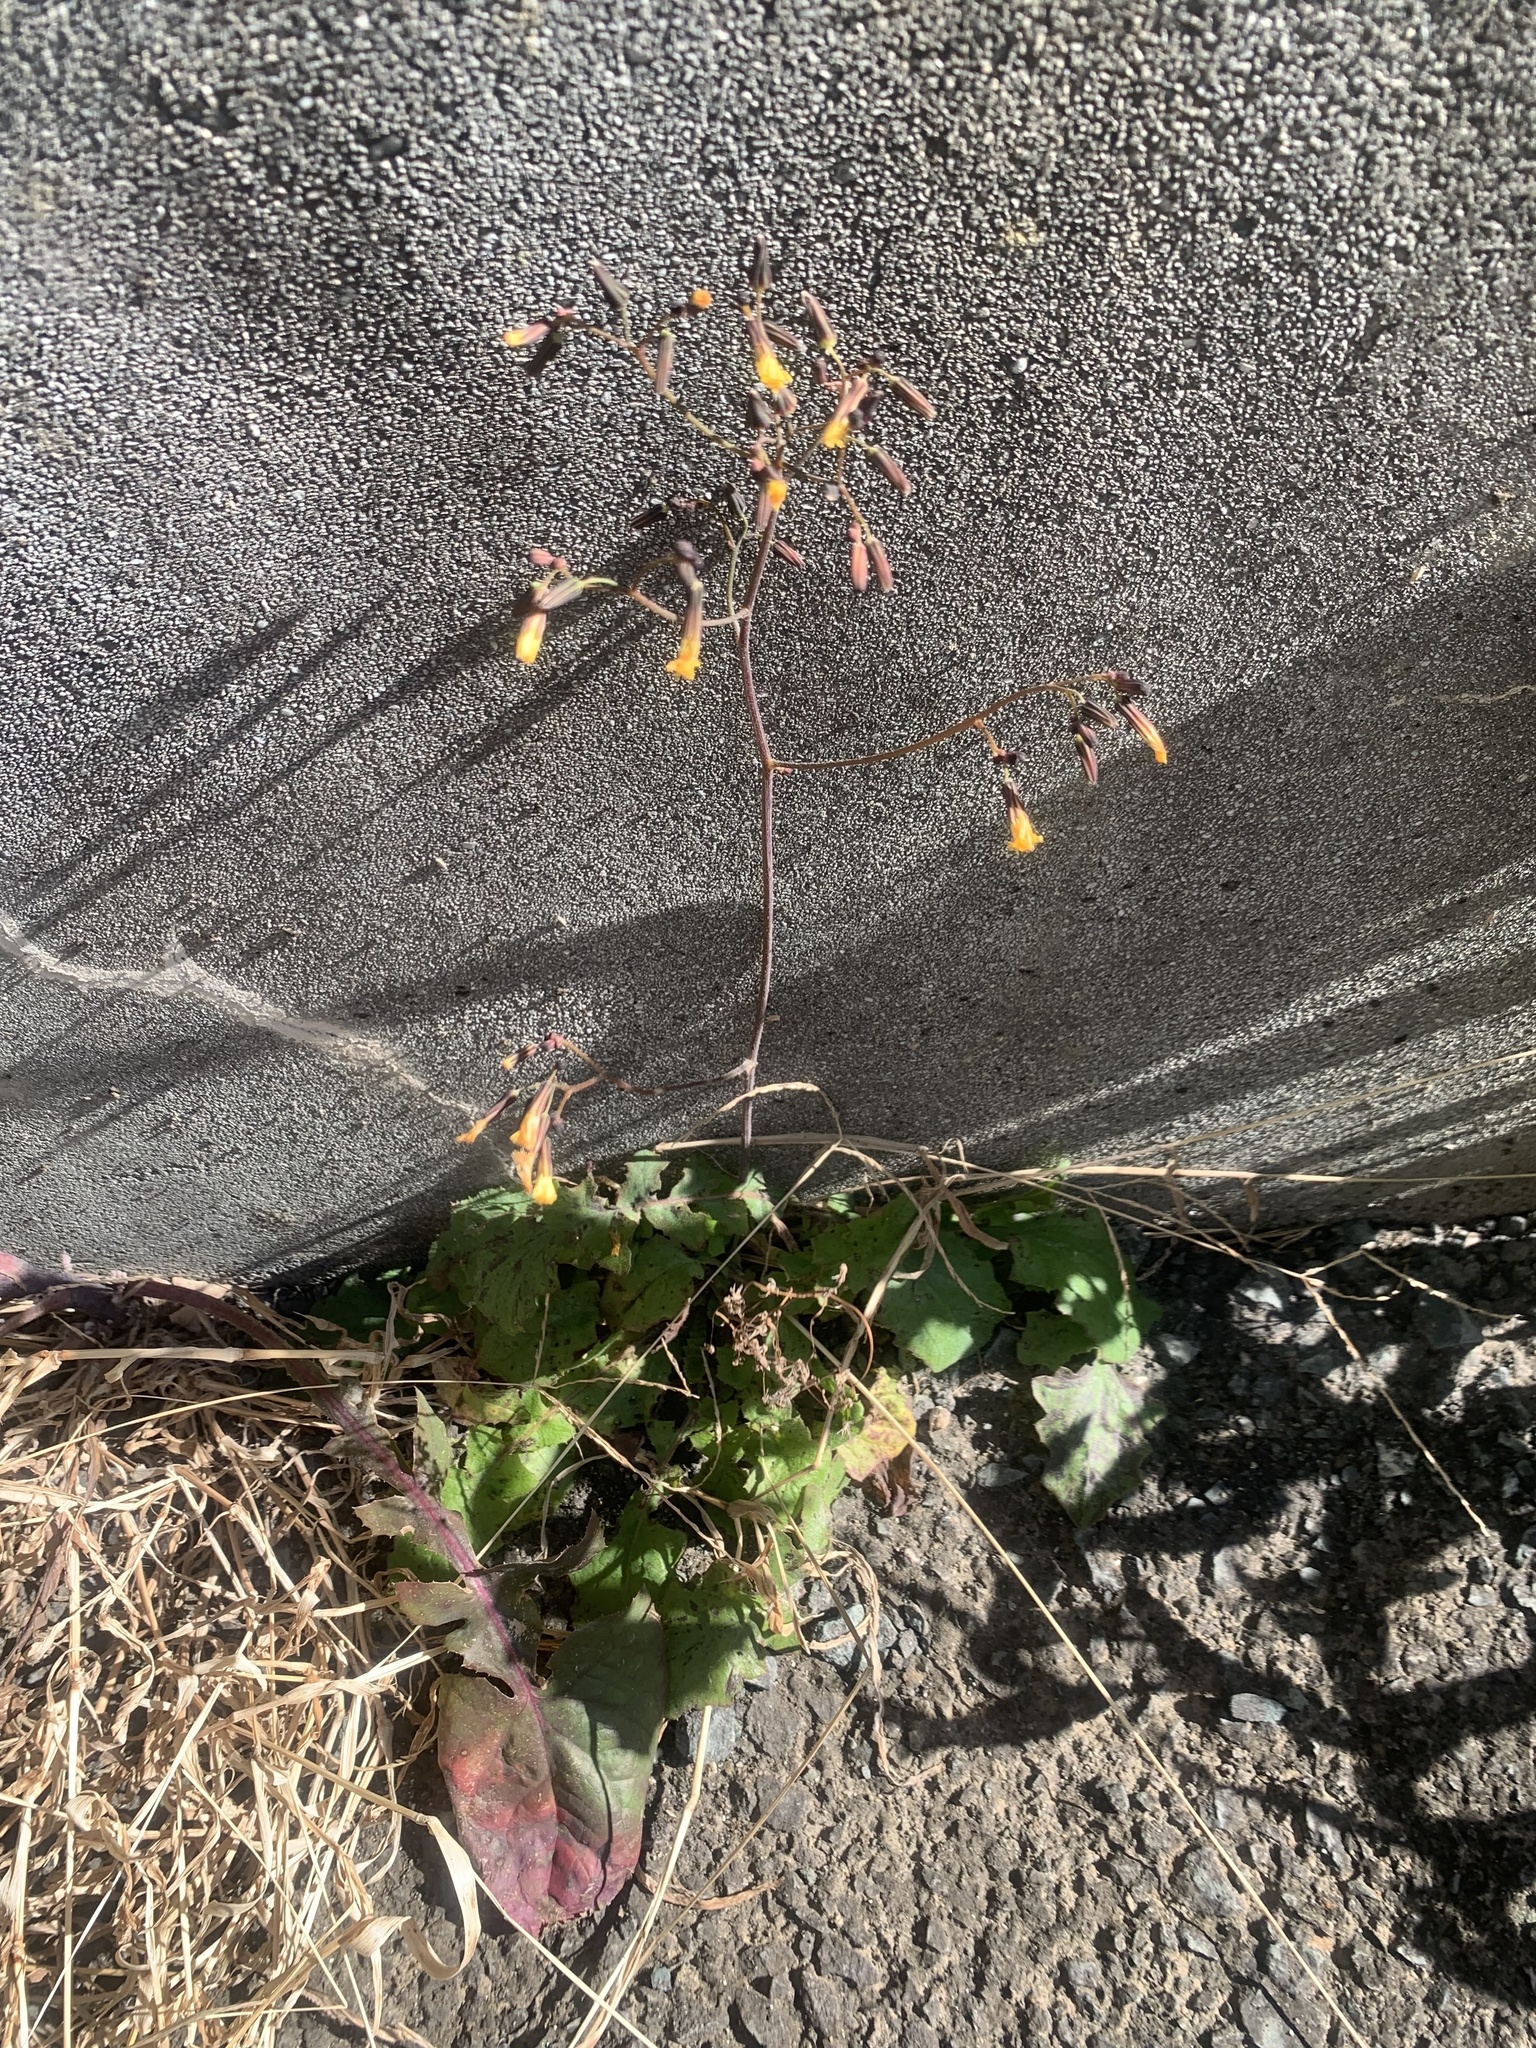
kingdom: Plantae
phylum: Tracheophyta
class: Magnoliopsida
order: Asterales
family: Asteraceae
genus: Youngia
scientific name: Youngia japonica
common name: Oriental false hawksbeard
